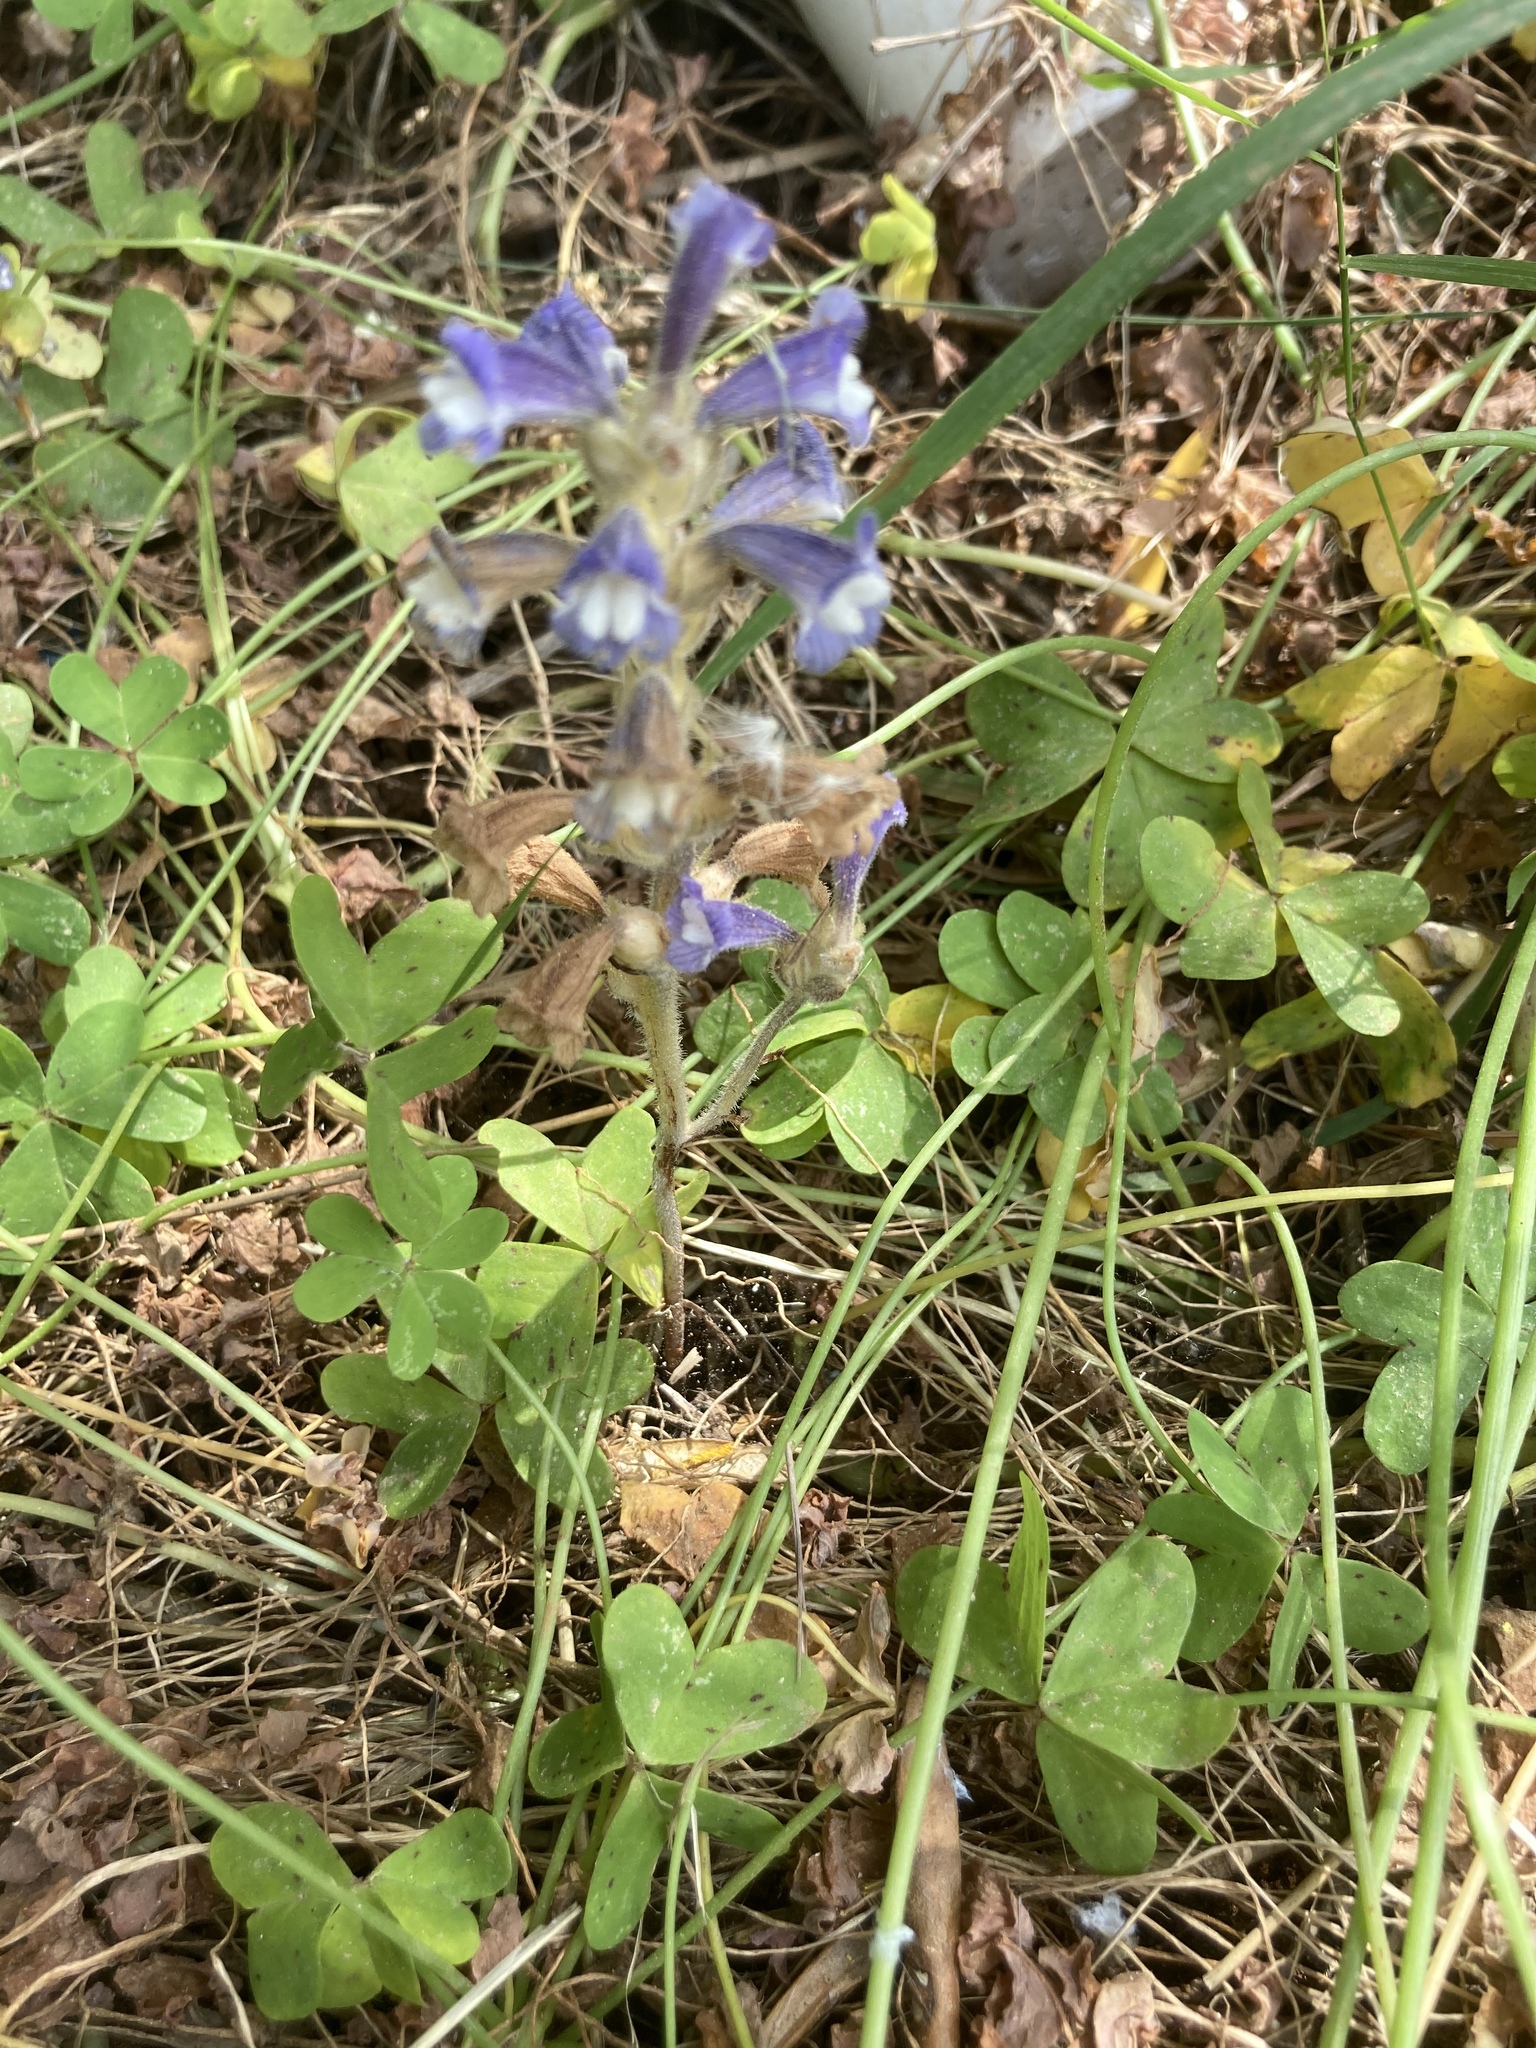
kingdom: Plantae
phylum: Tracheophyta
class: Magnoliopsida
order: Oxalidales
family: Oxalidaceae
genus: Oxalis
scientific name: Oxalis pes-caprae
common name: Bermuda-buttercup
